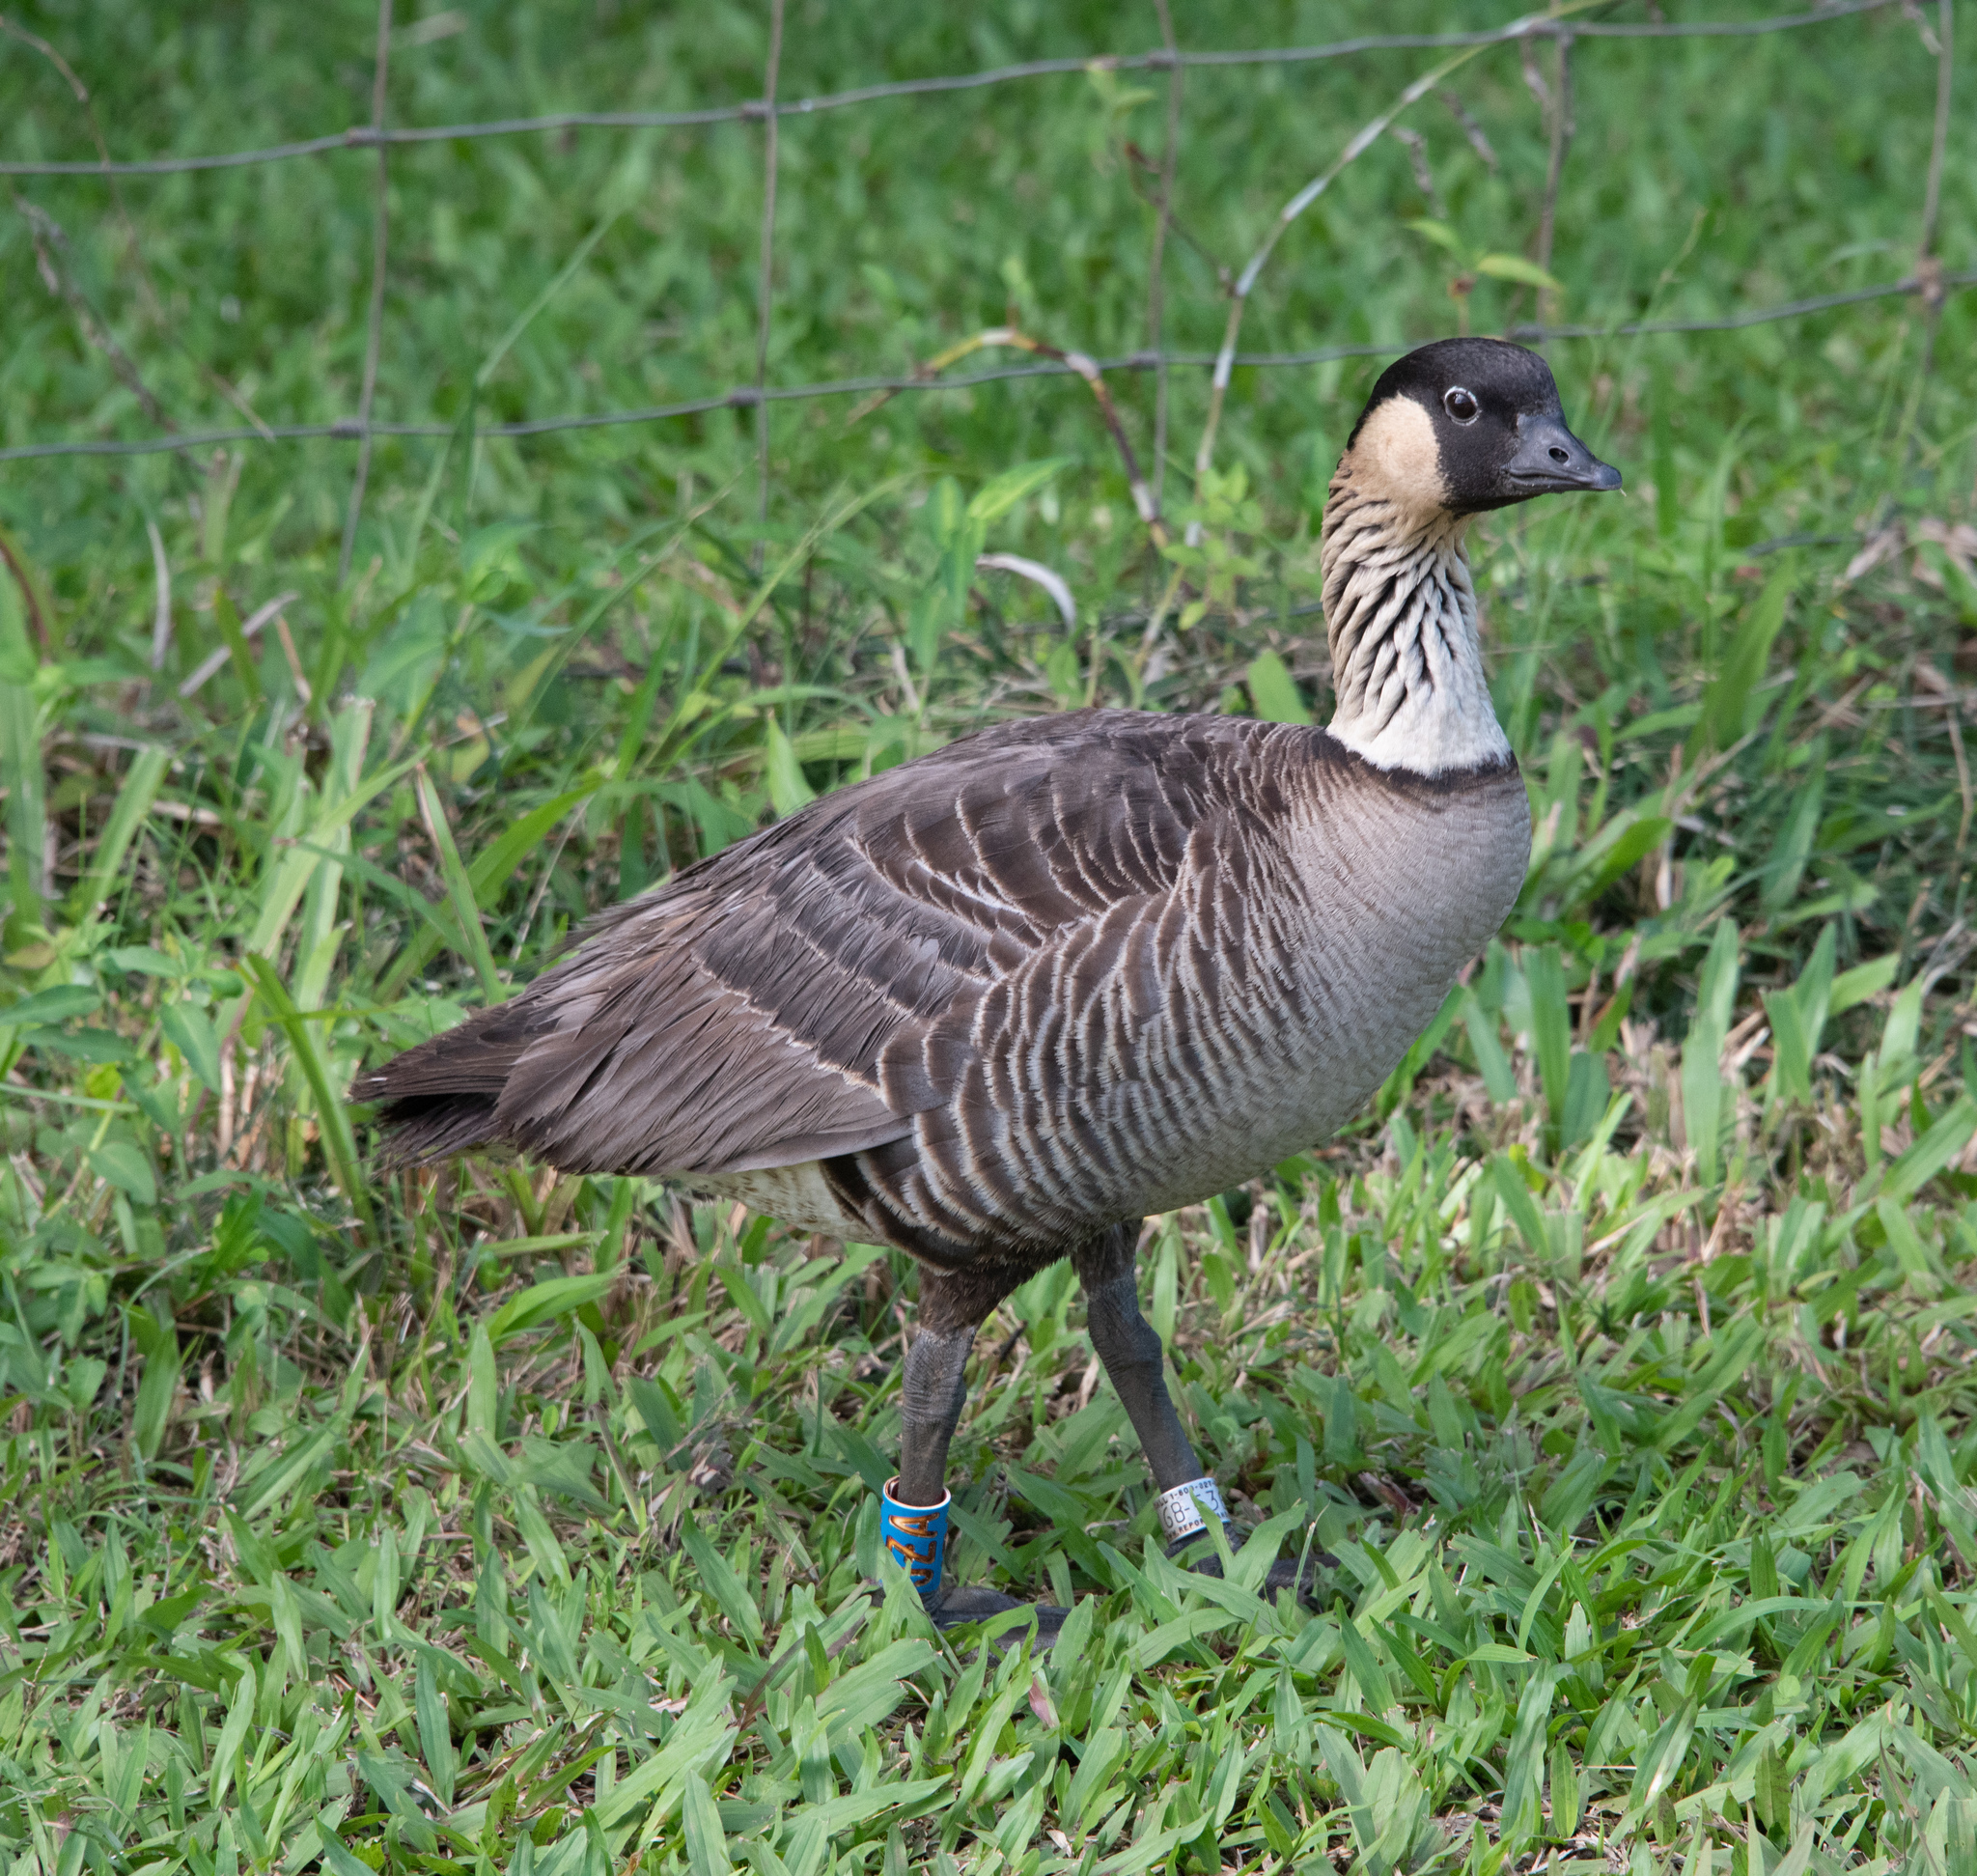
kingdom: Animalia
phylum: Chordata
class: Aves
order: Anseriformes
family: Anatidae
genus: Branta
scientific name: Branta sandvicensis
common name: Nene
